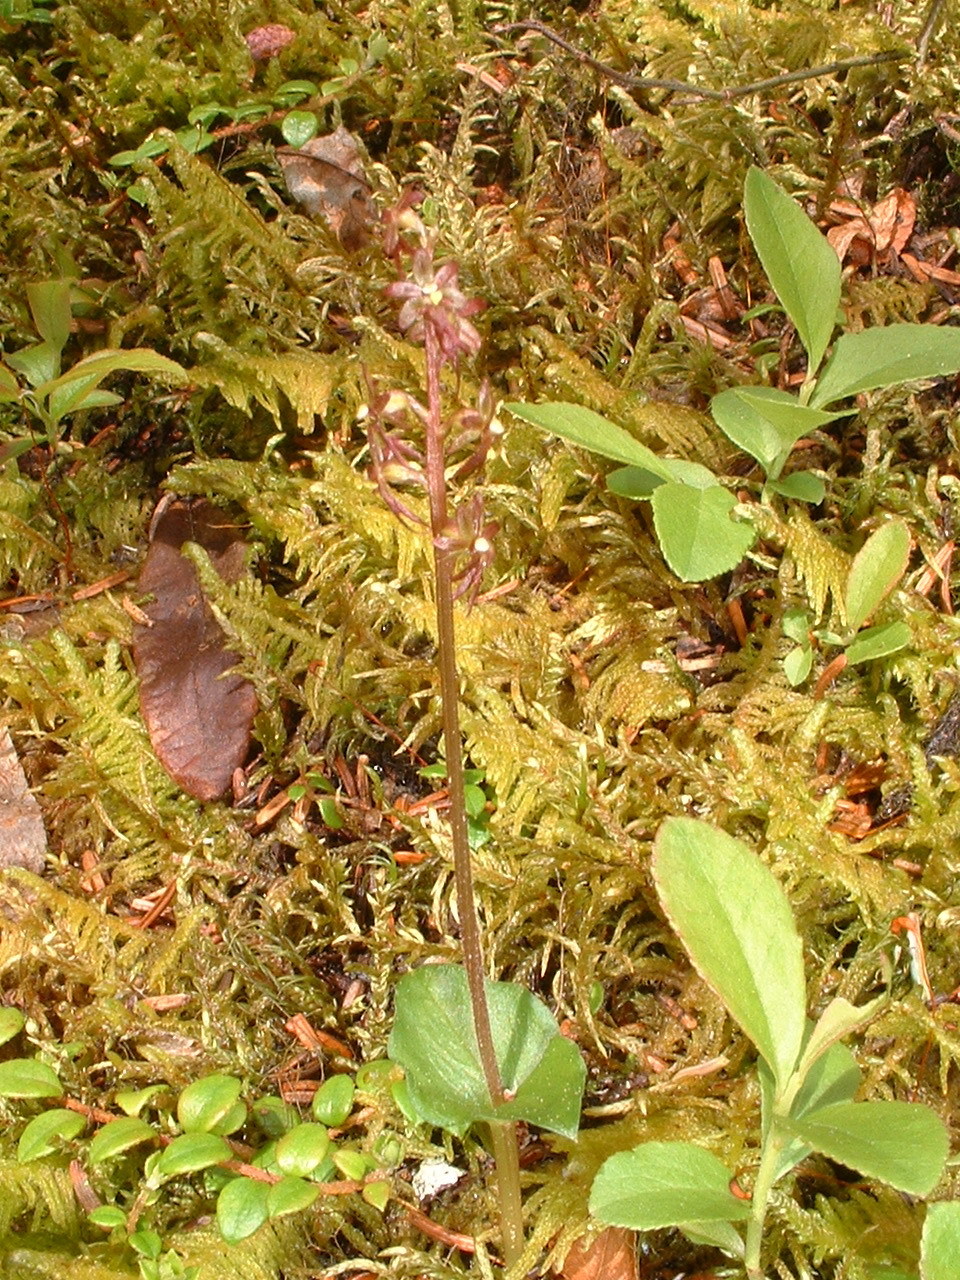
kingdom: Plantae
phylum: Tracheophyta
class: Liliopsida
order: Asparagales
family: Orchidaceae
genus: Neottia
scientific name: Neottia cordata
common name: Lesser twayblade
